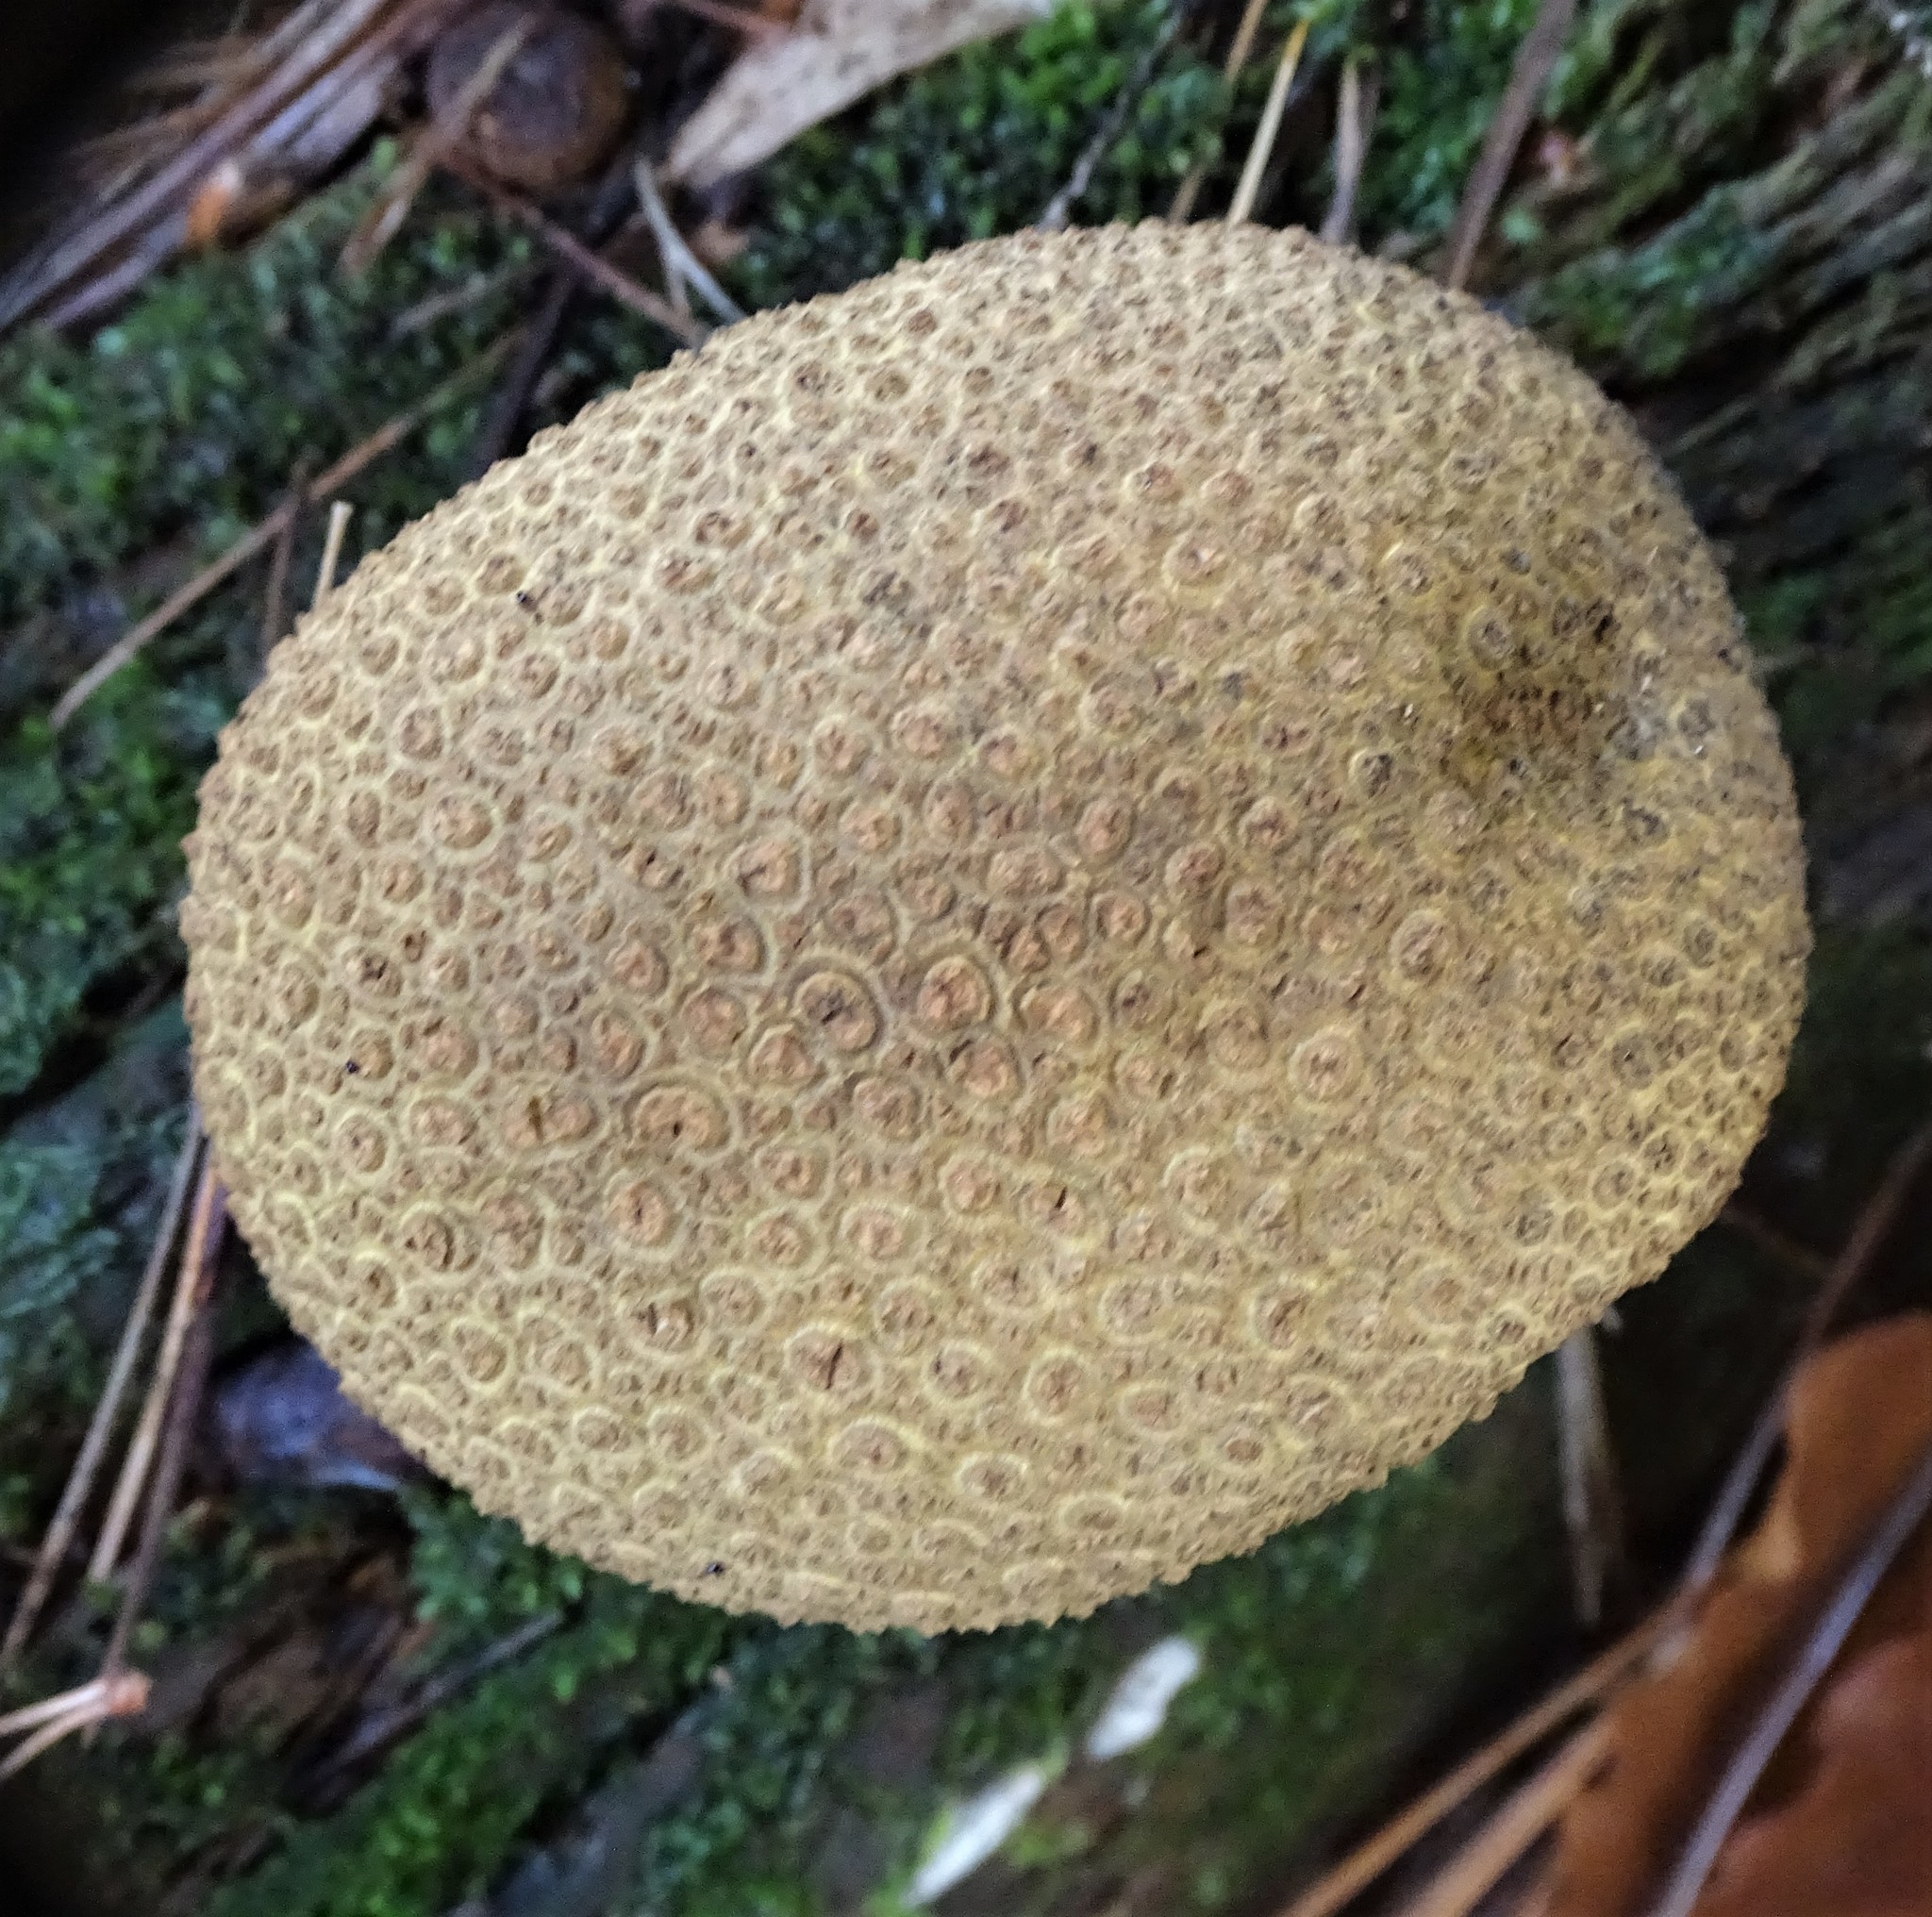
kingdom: Fungi
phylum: Basidiomycota
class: Agaricomycetes
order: Boletales
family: Sclerodermataceae
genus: Scleroderma
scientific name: Scleroderma citrinum
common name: Common earthball
